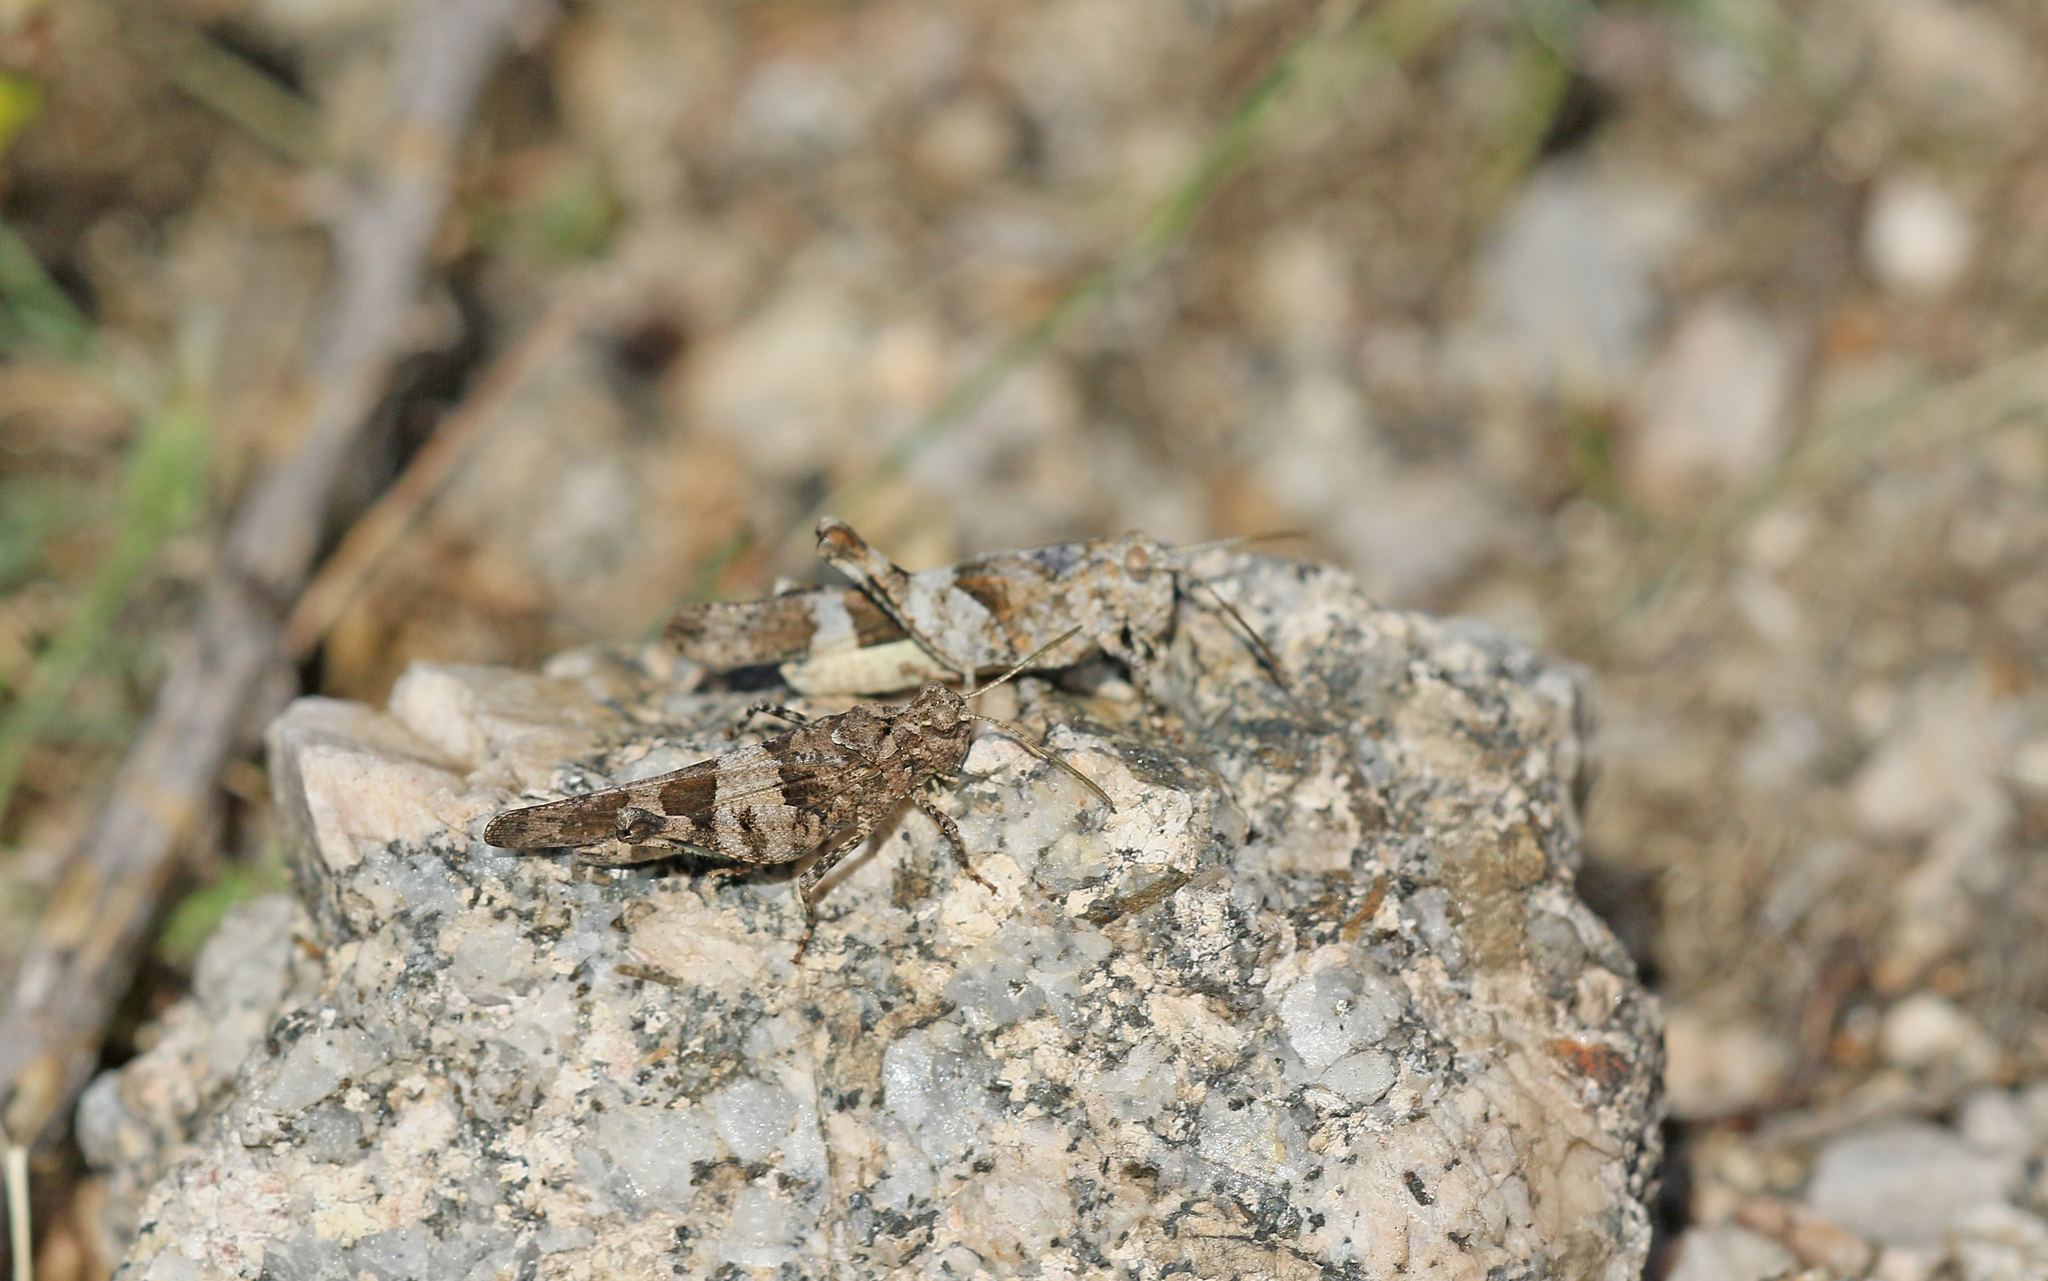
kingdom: Animalia
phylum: Arthropoda
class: Insecta
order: Orthoptera
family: Acrididae
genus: Oedipoda
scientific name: Oedipoda caerulescens
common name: Blue-winged grasshopper
